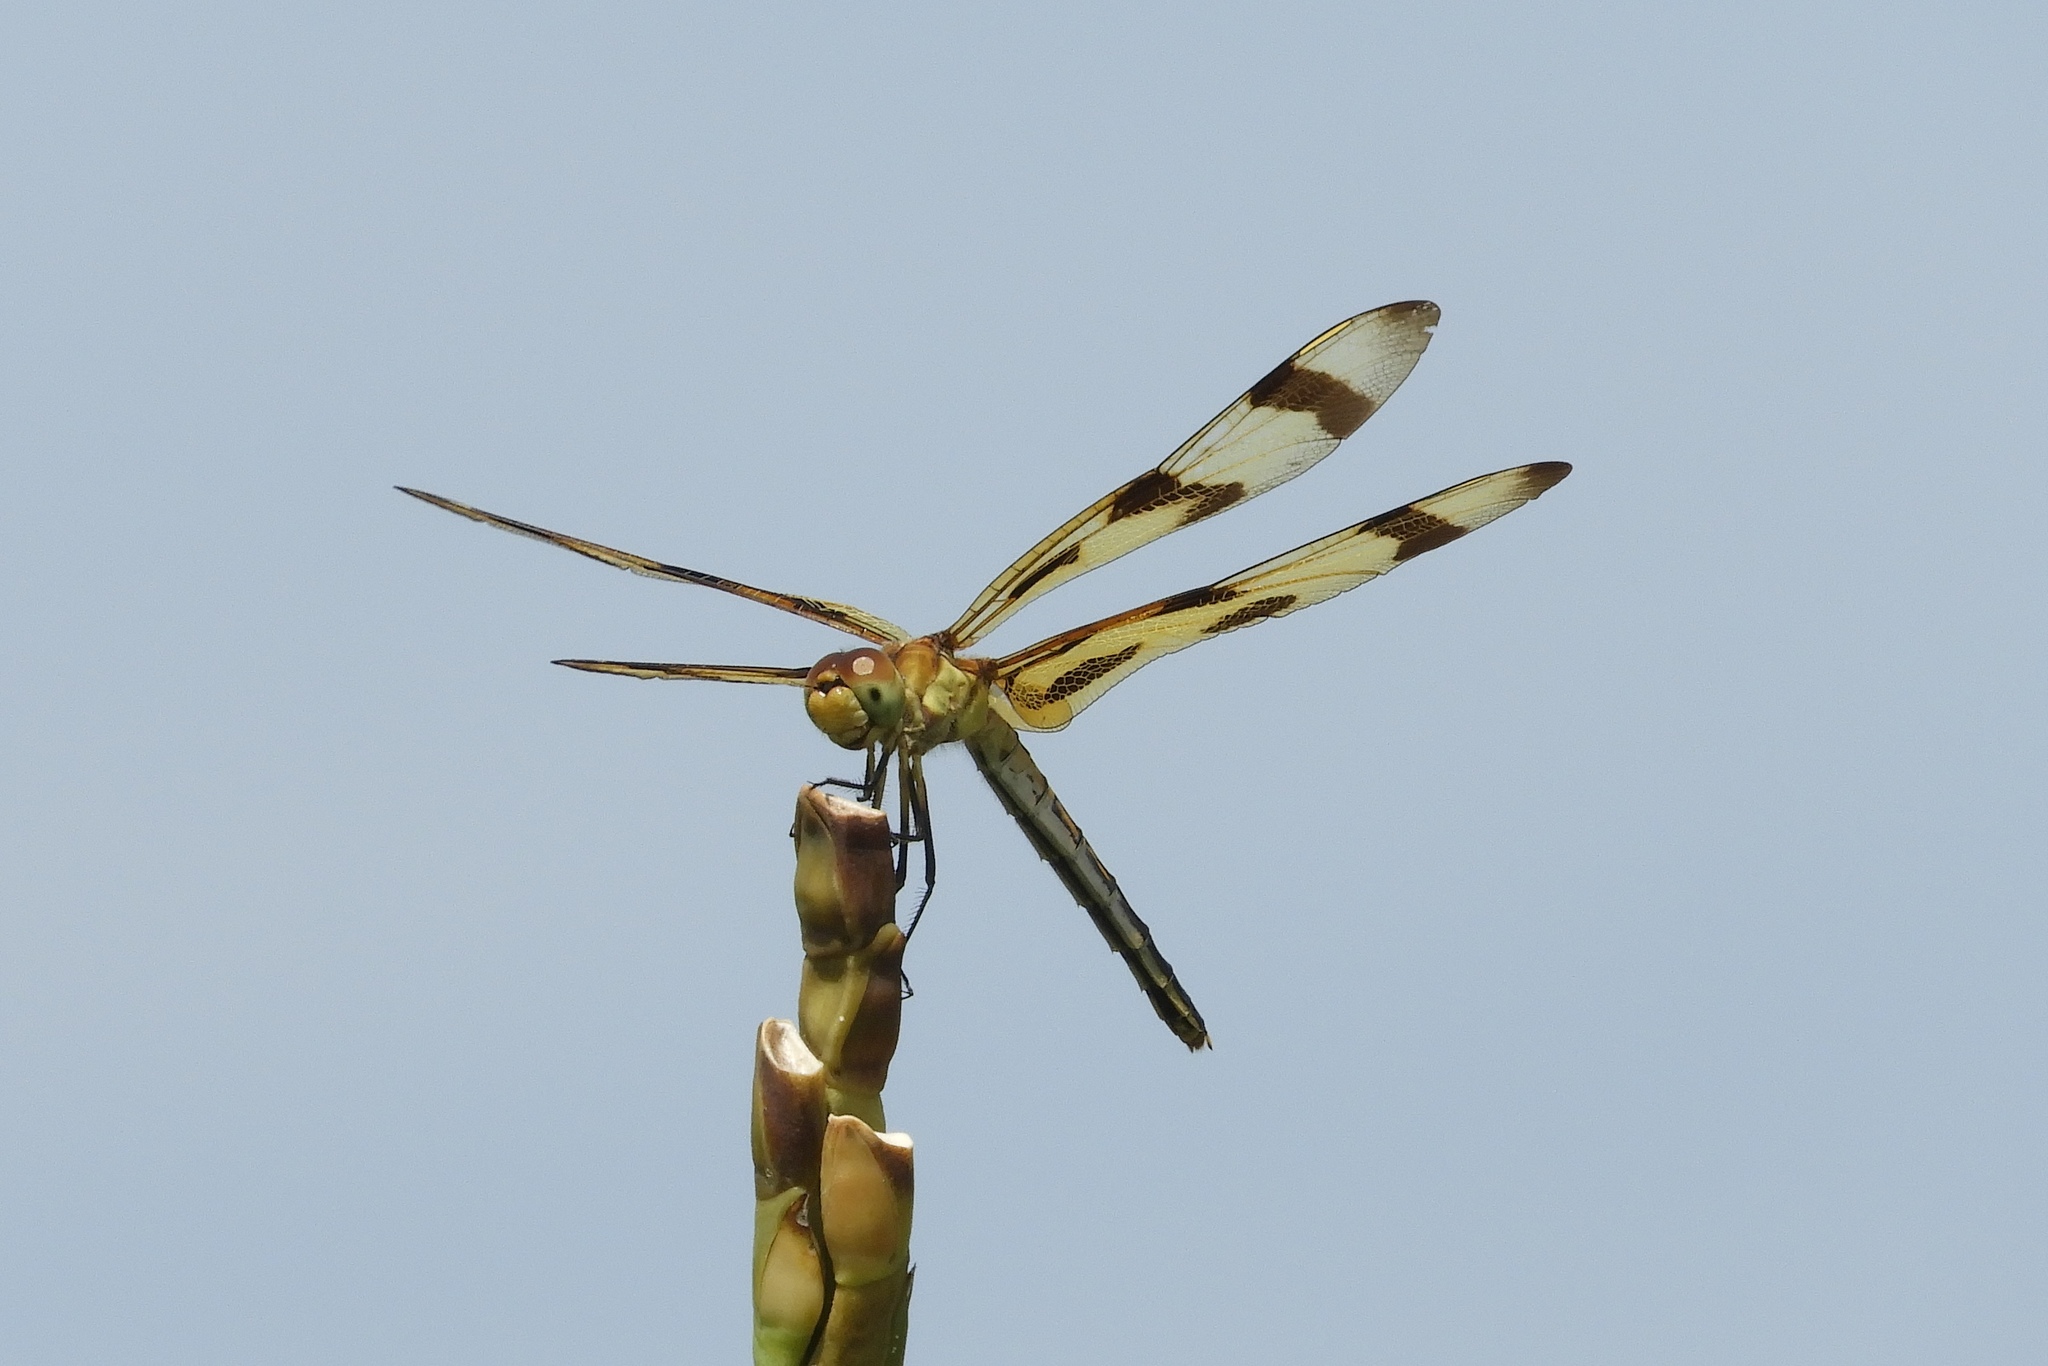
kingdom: Animalia
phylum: Arthropoda
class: Insecta
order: Odonata
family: Libellulidae
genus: Celithemis
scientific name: Celithemis eponina
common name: Halloween pennant
